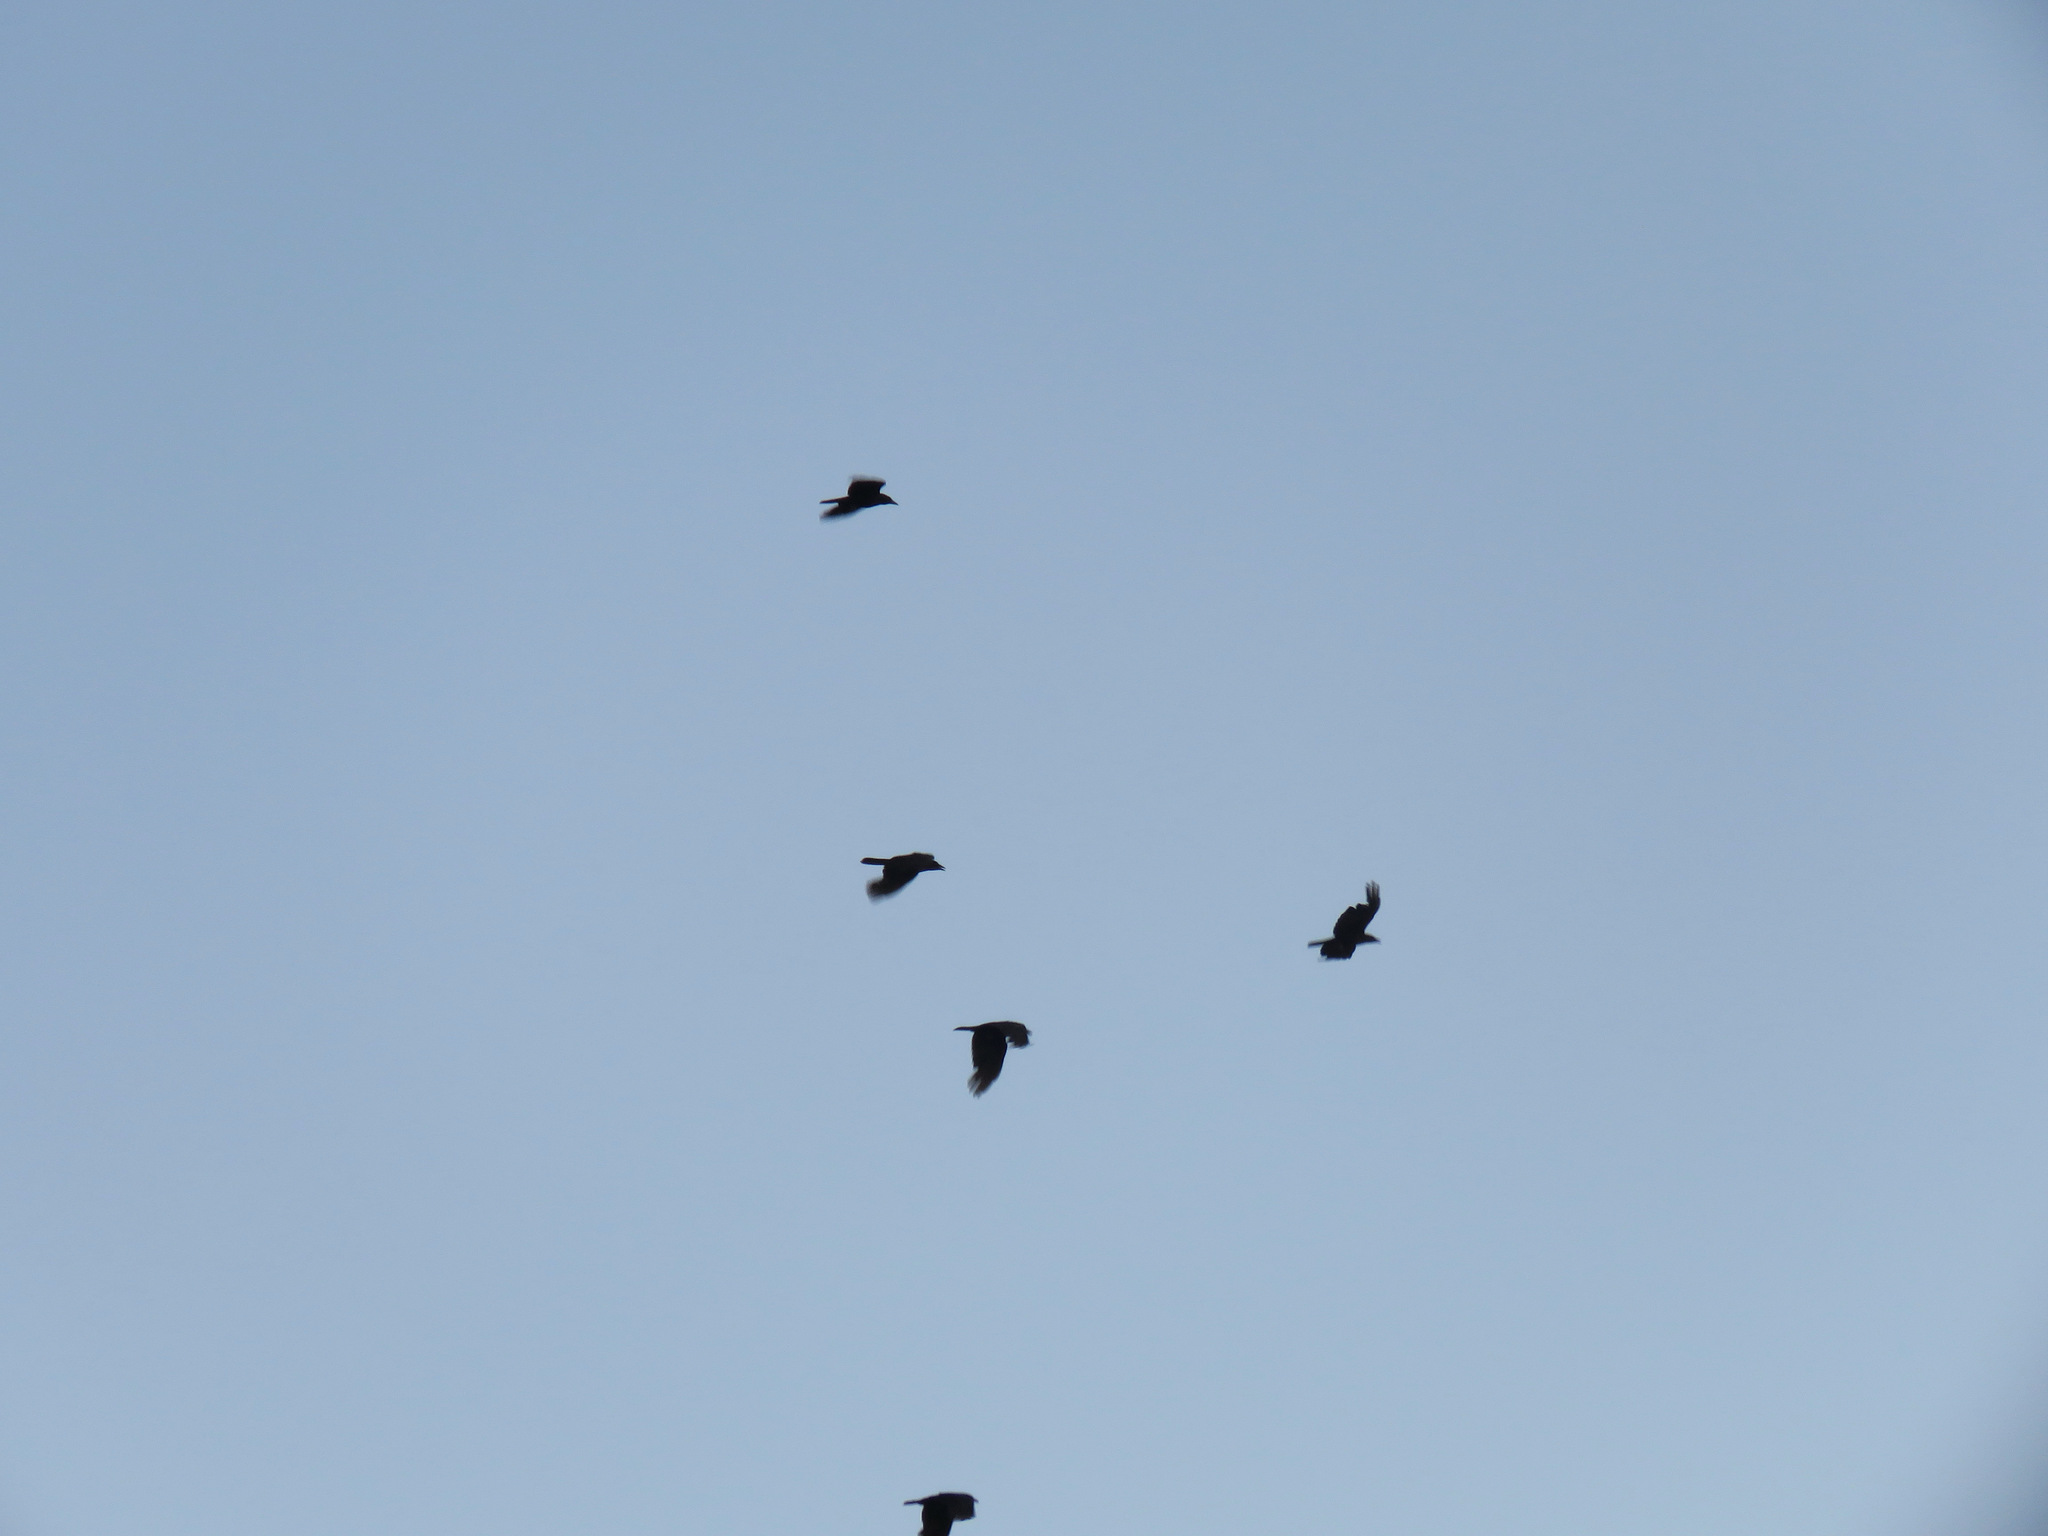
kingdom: Animalia
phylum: Chordata
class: Aves
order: Passeriformes
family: Corvidae
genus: Corvus
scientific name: Corvus brachyrhynchos
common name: American crow
